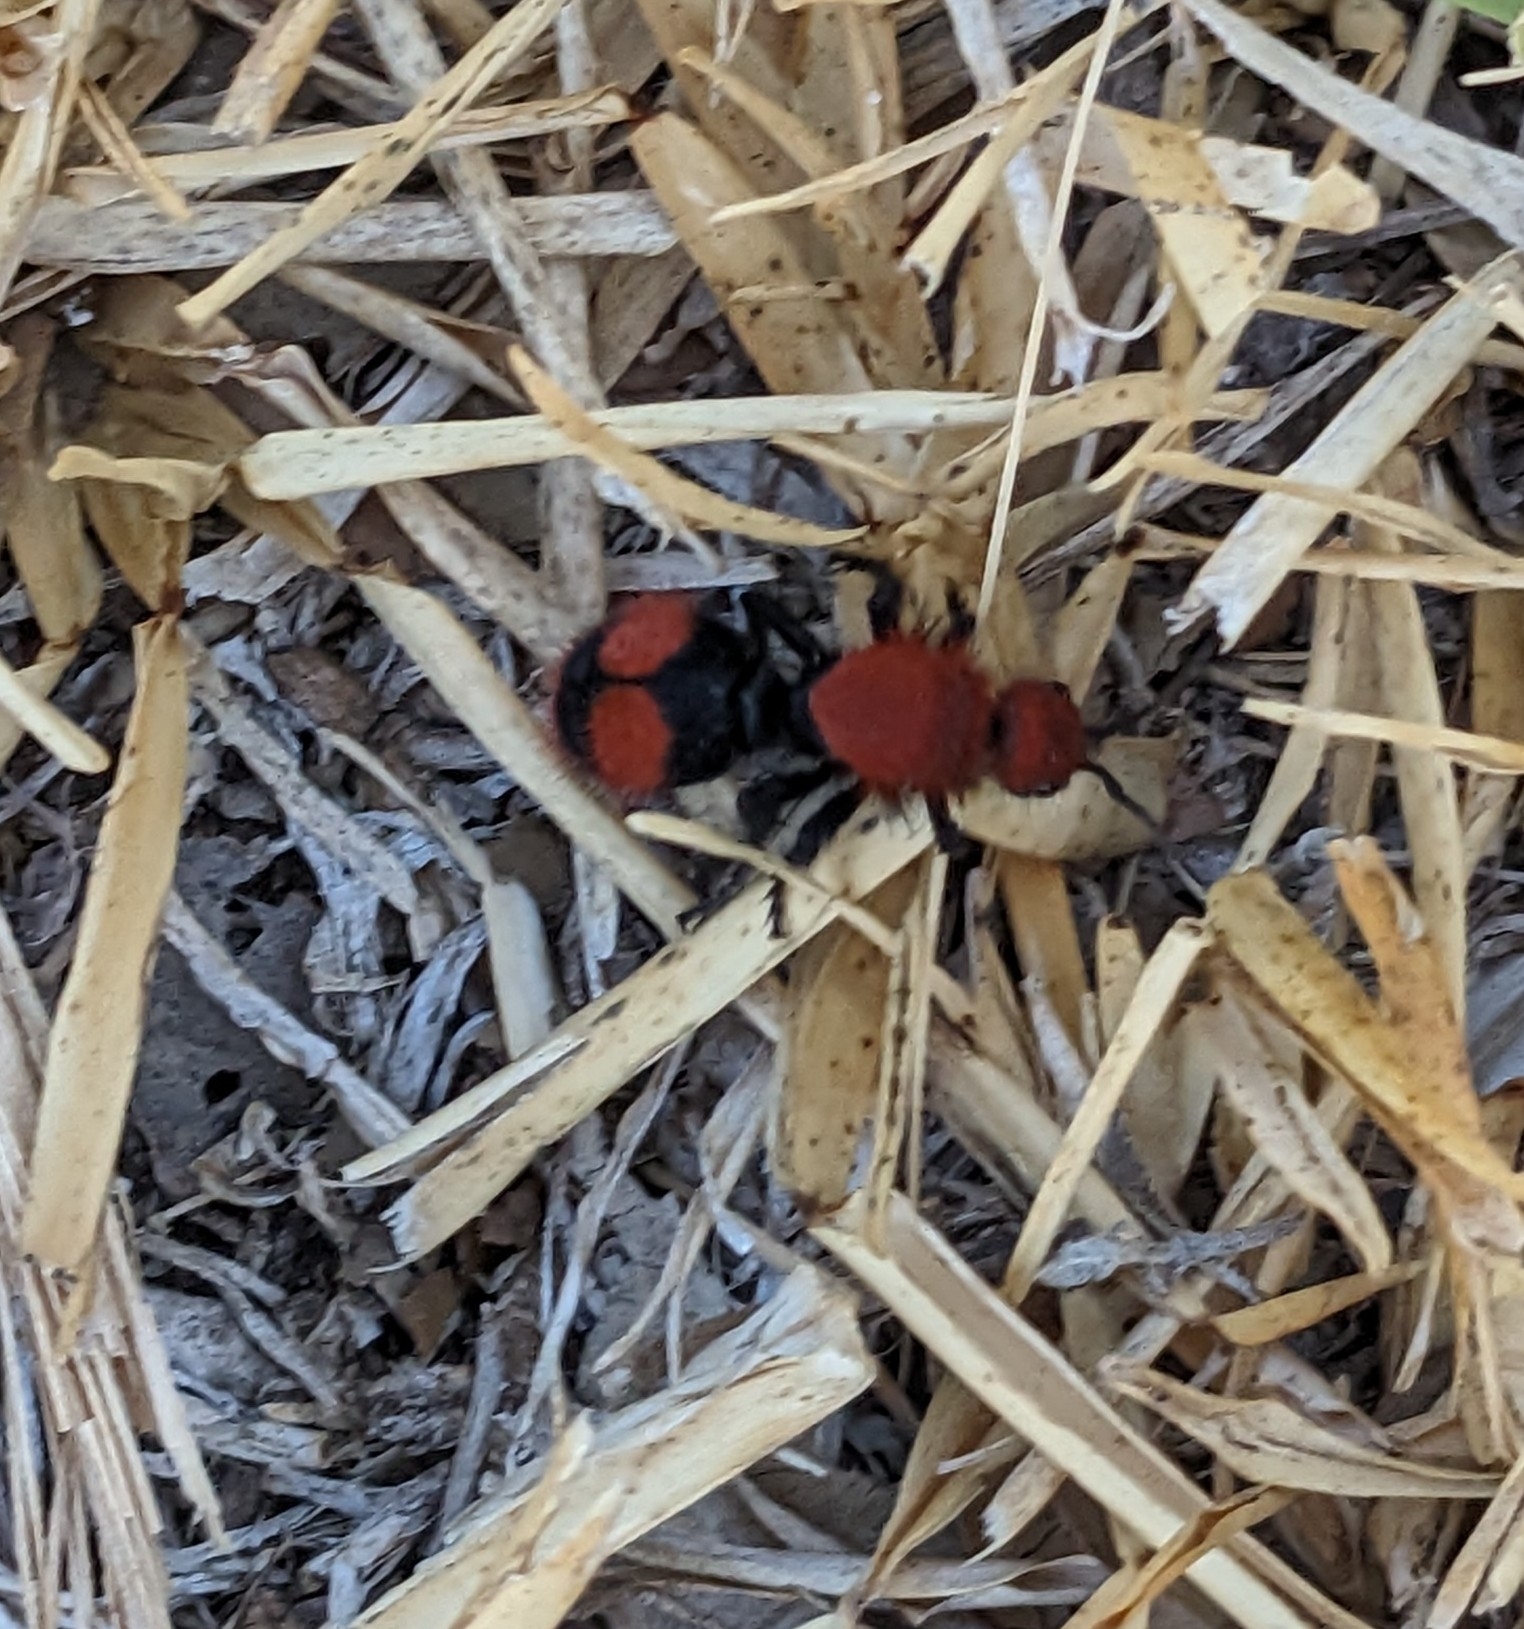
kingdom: Animalia
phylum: Arthropoda
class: Insecta
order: Hymenoptera
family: Mutillidae
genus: Dasymutilla
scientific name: Dasymutilla occidentalis
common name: Common eastern velvet ant
